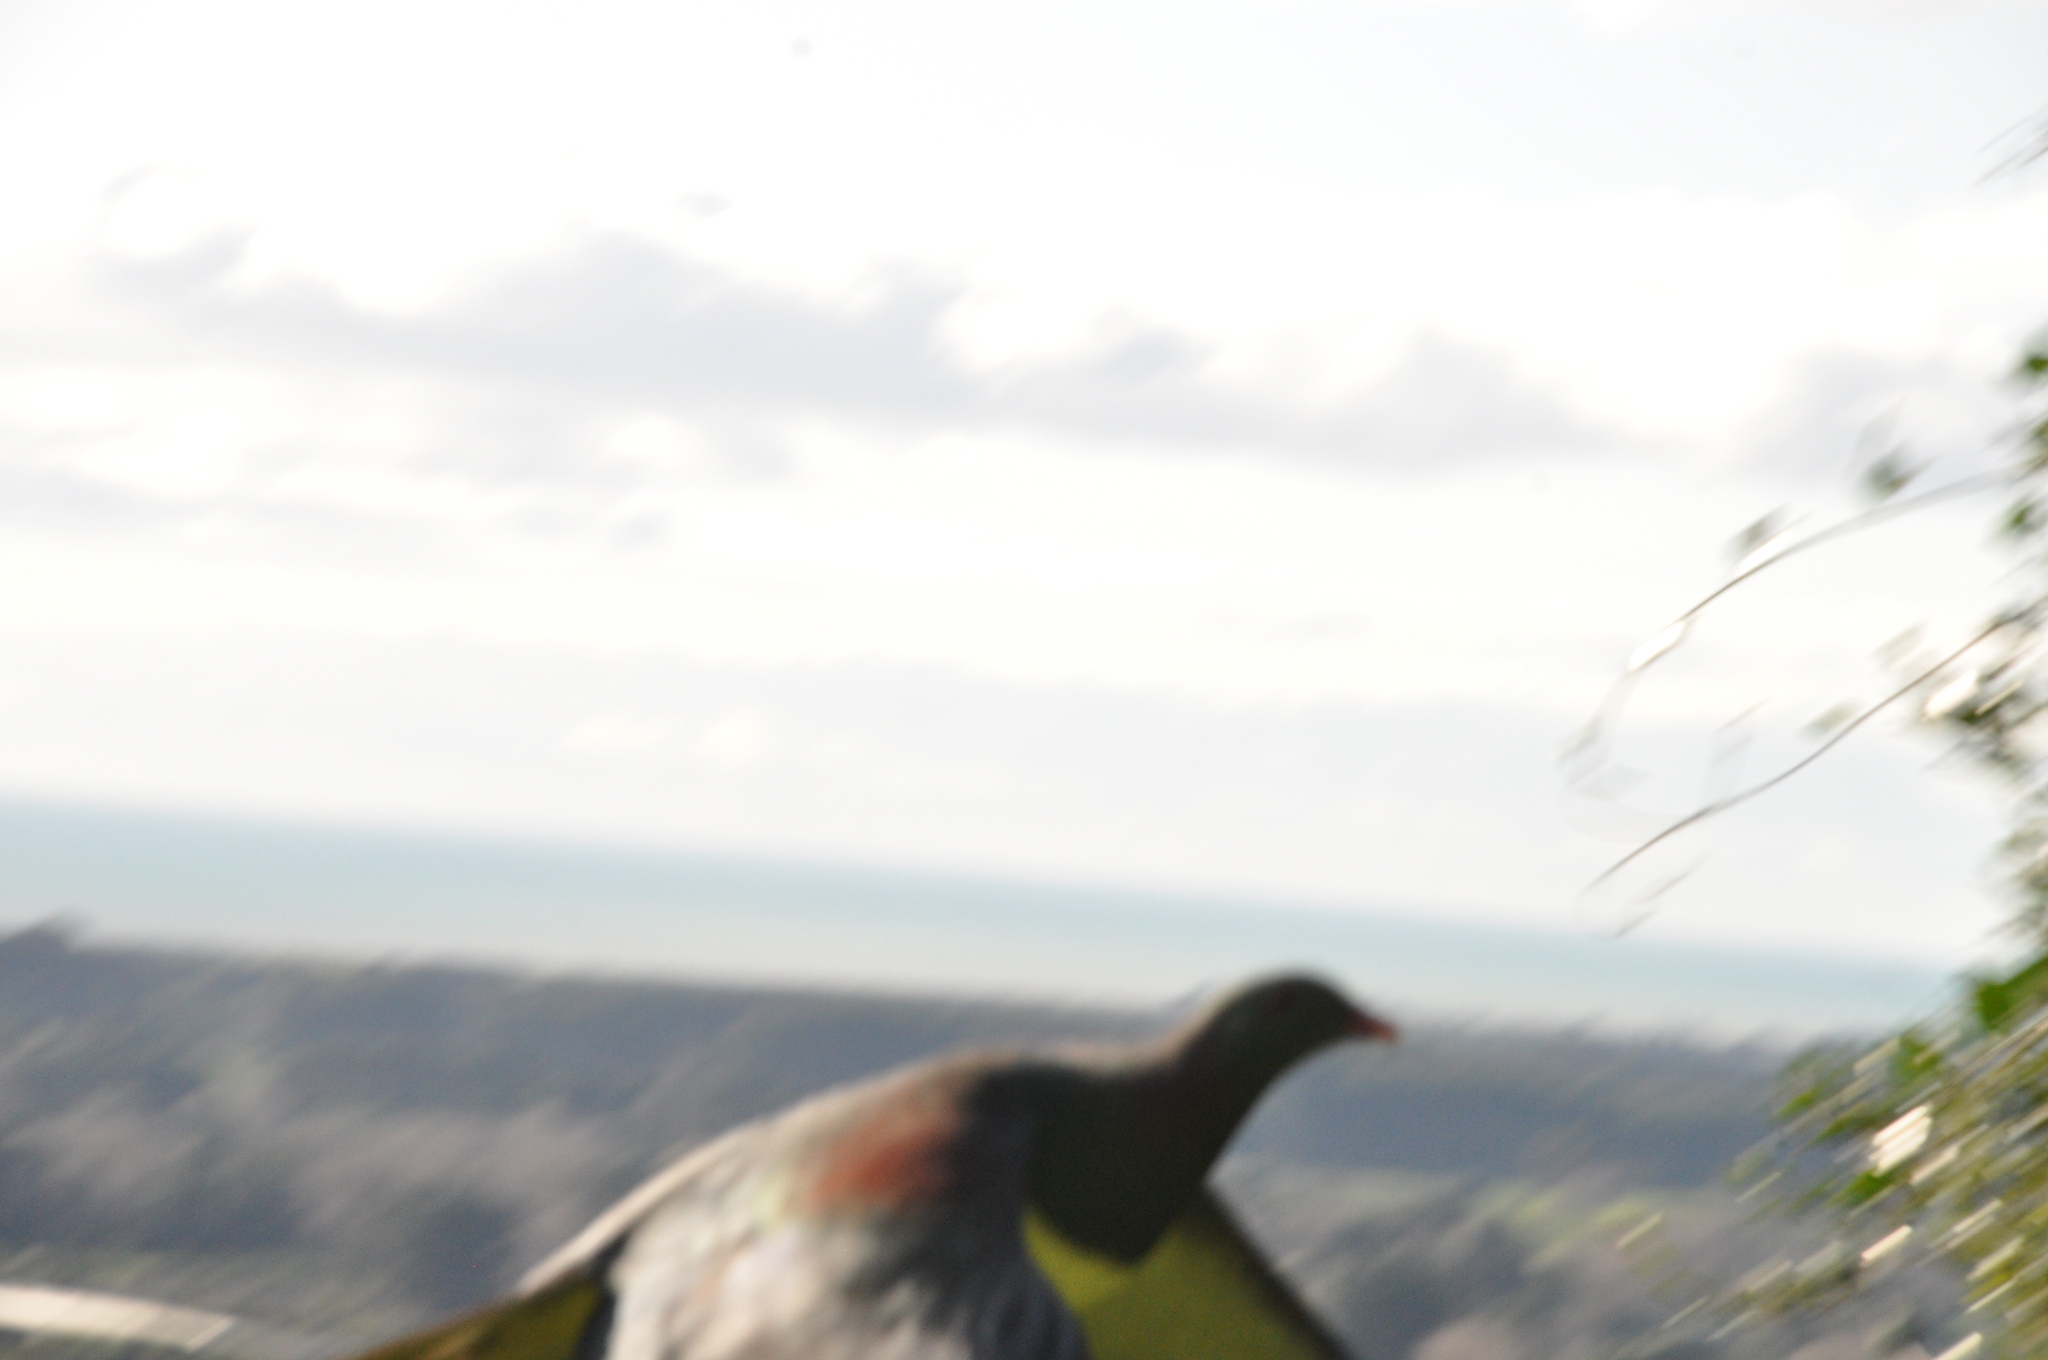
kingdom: Animalia
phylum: Chordata
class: Aves
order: Columbiformes
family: Columbidae
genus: Hemiphaga
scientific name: Hemiphaga novaeseelandiae
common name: New zealand pigeon
